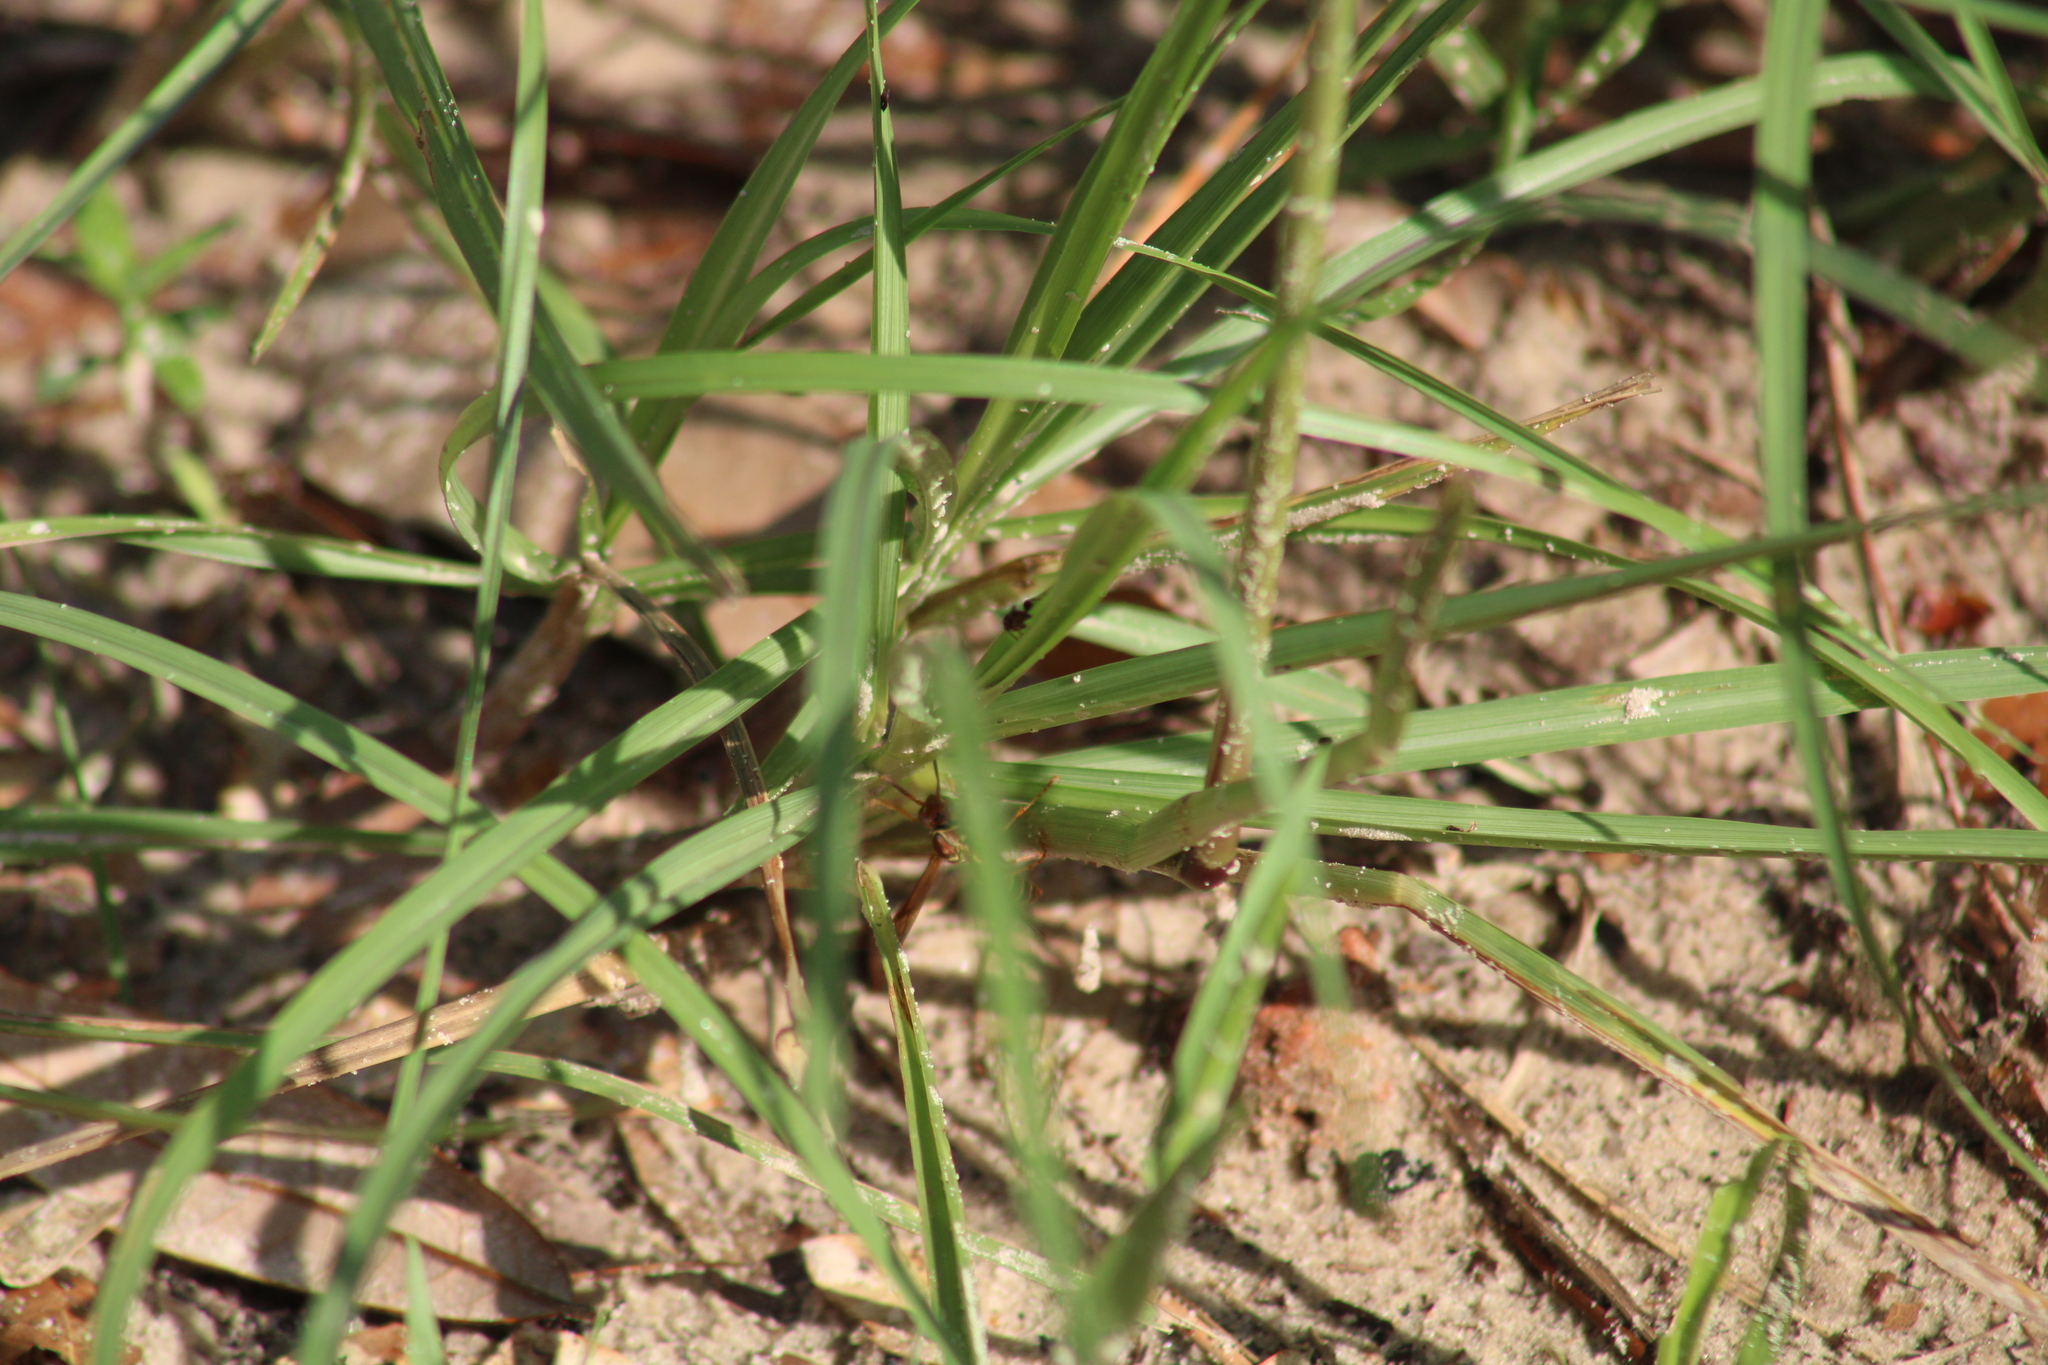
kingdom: Animalia
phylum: Arthropoda
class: Insecta
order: Hymenoptera
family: Eumenidae
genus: Polistes
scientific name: Polistes dorsalis
